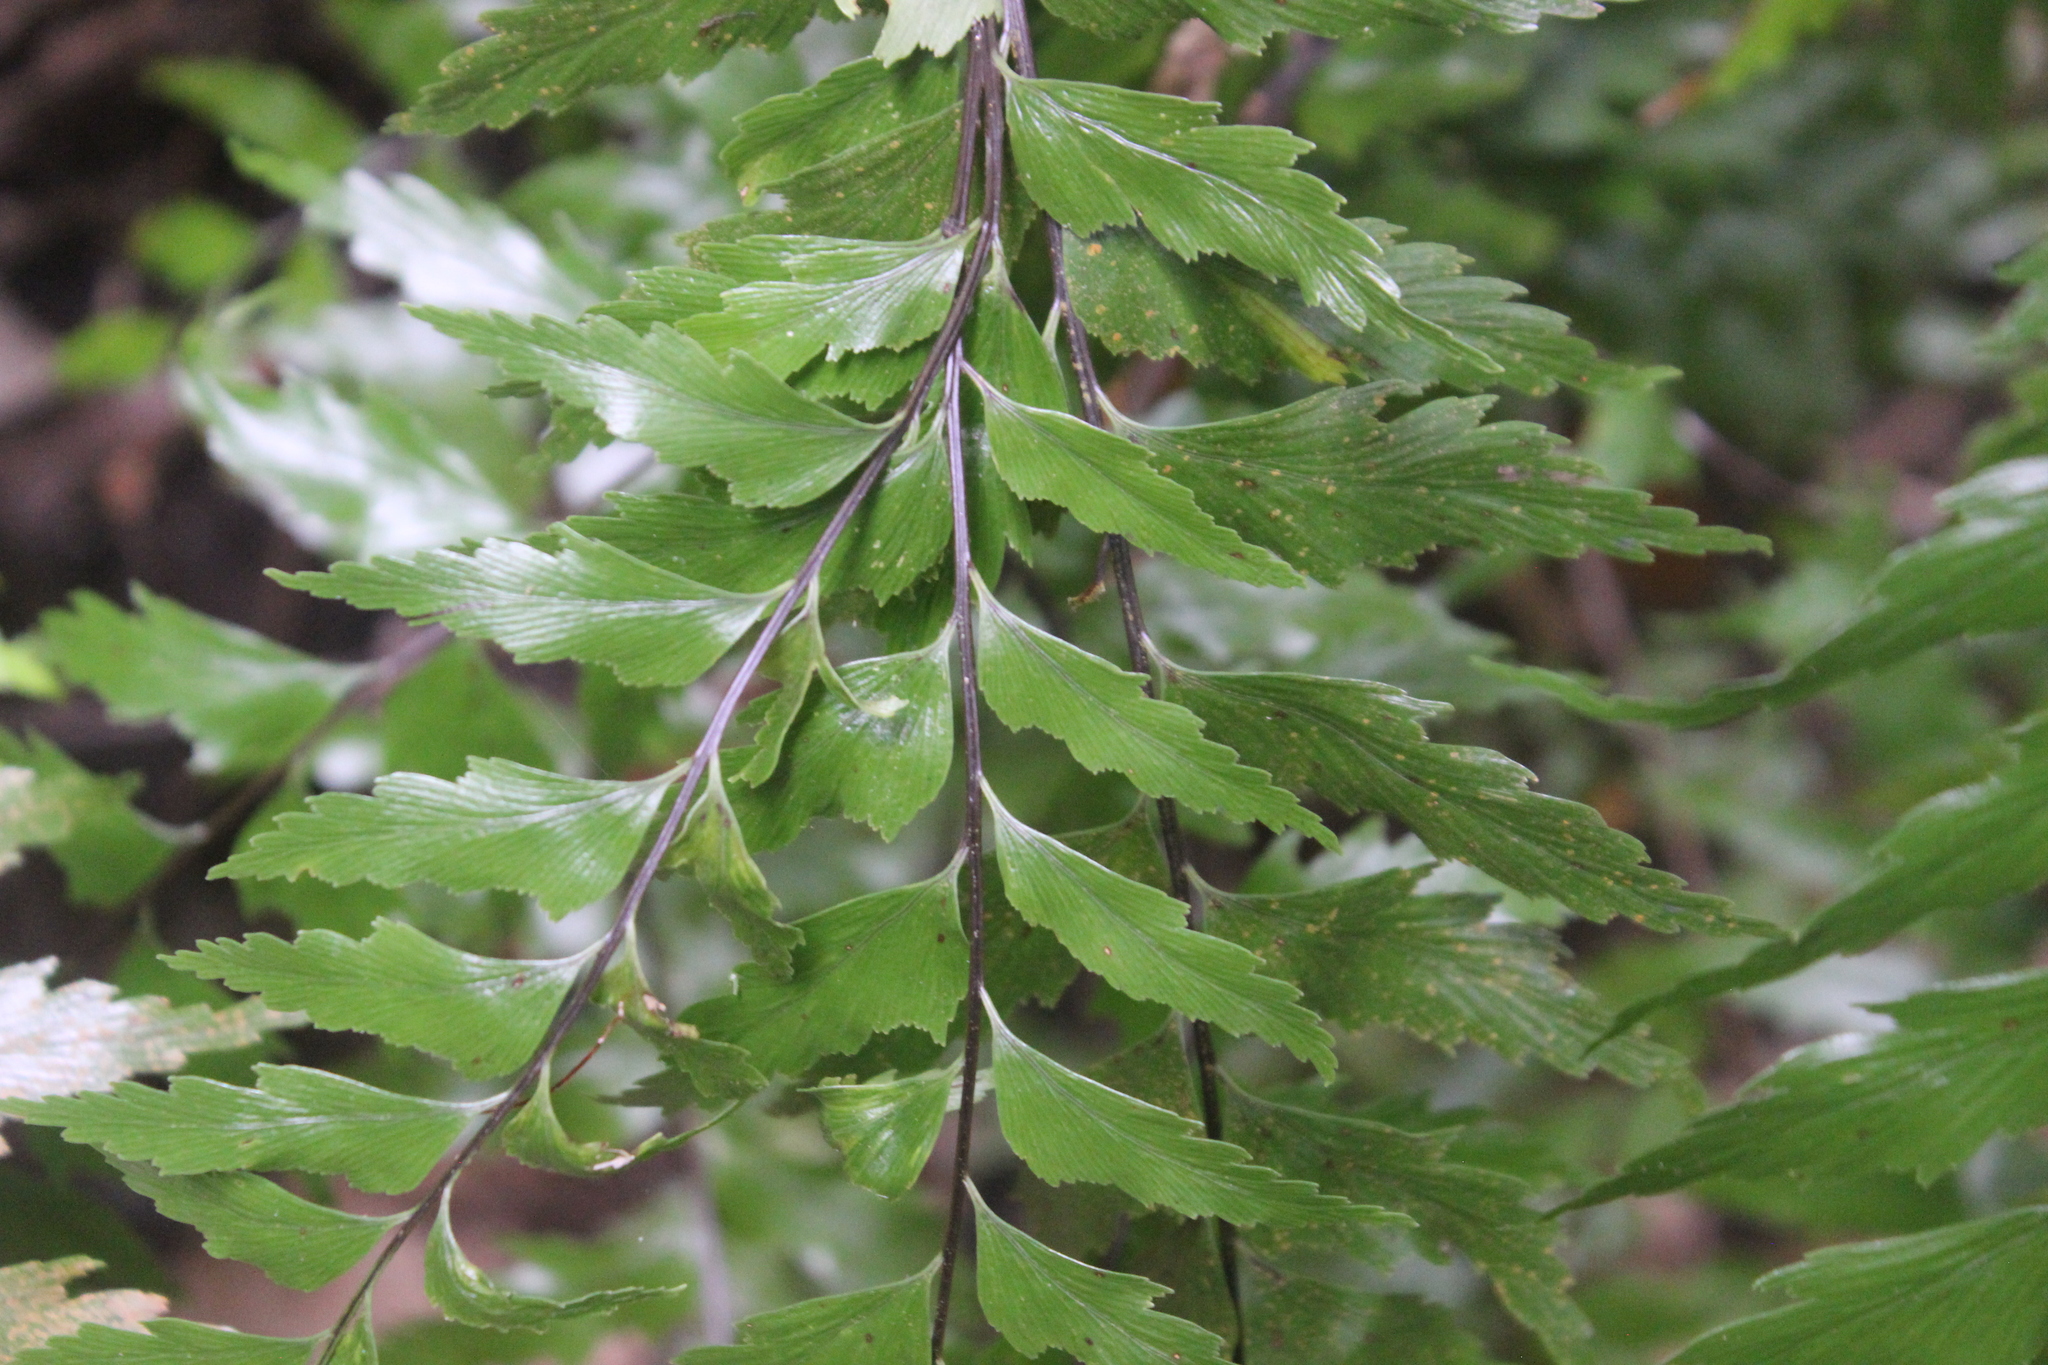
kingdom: Plantae
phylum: Tracheophyta
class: Polypodiopsida
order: Polypodiales
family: Aspleniaceae
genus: Asplenium
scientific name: Asplenium polyodon
